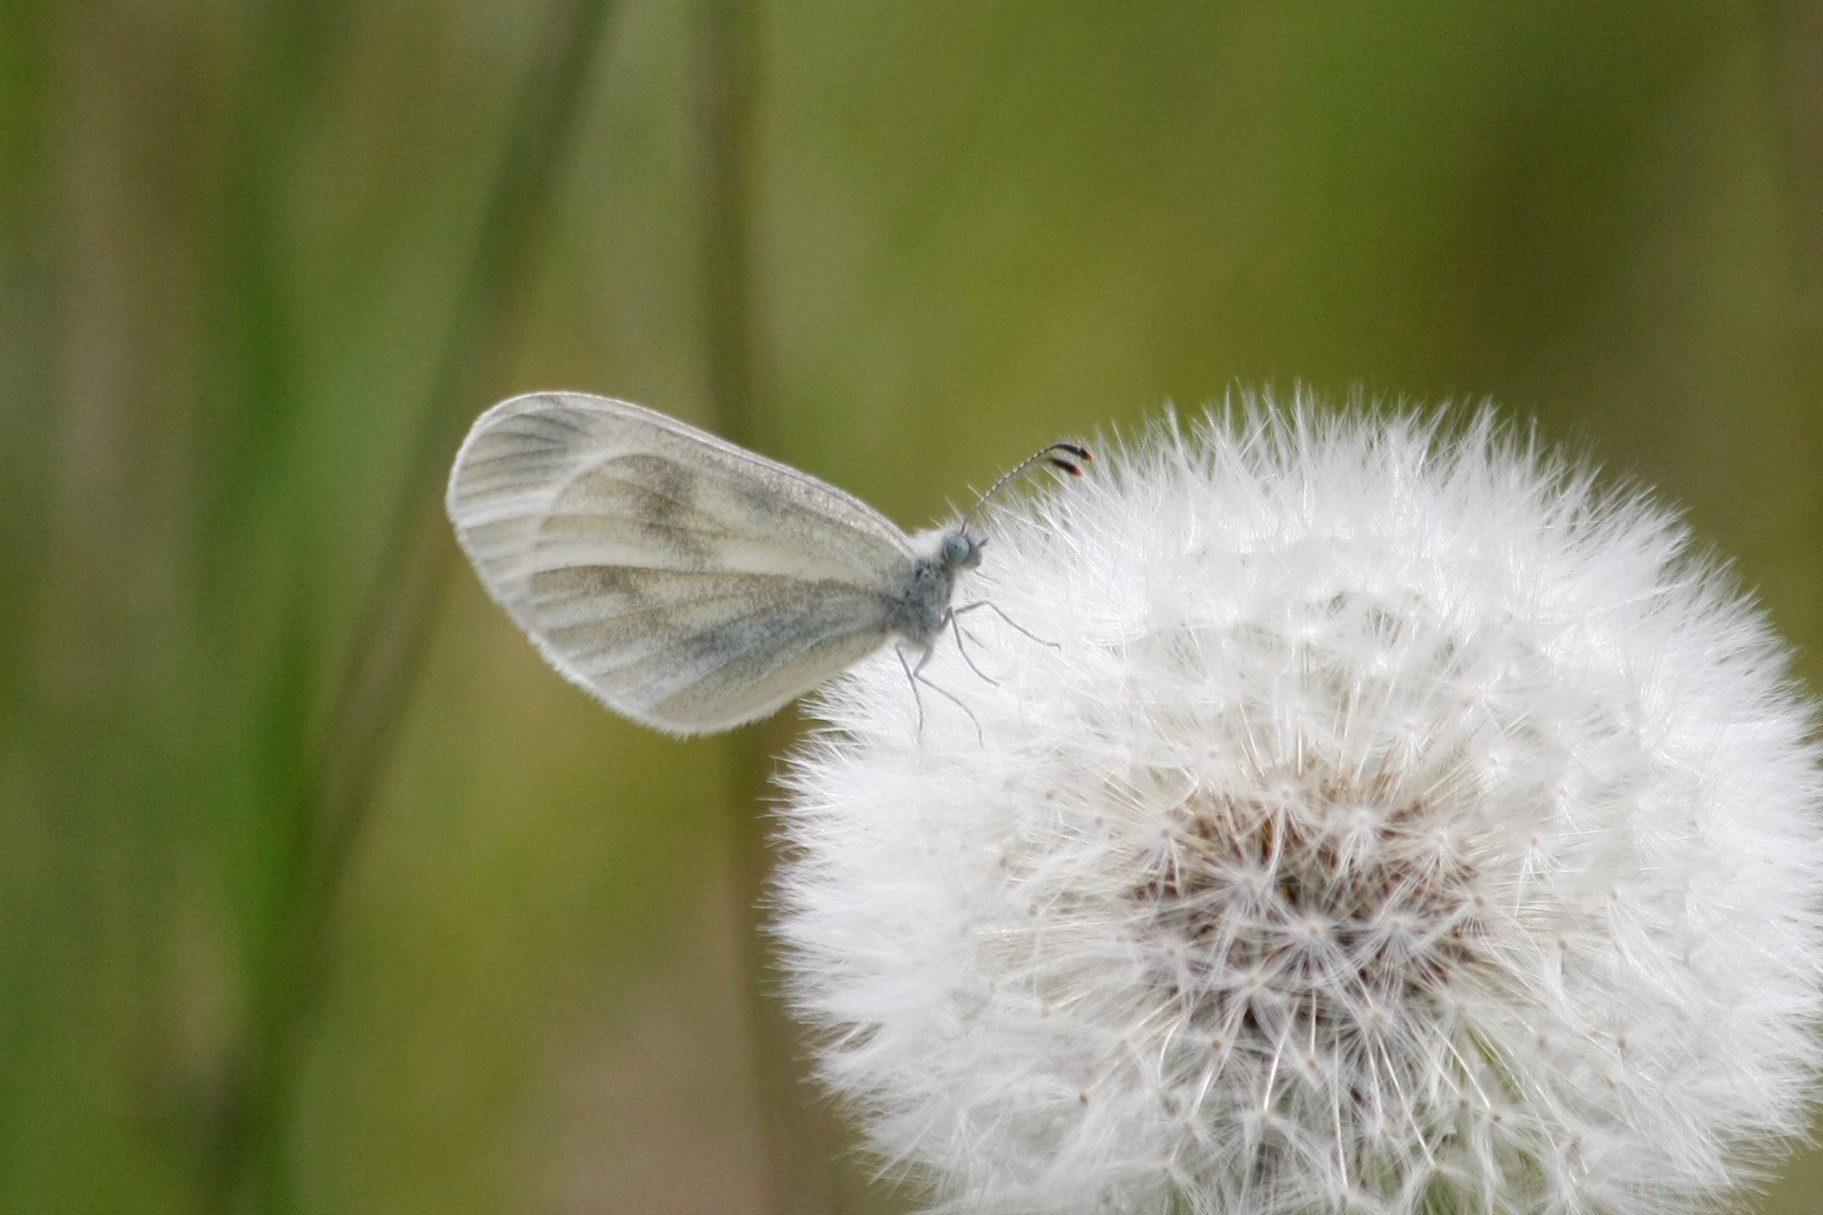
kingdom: Animalia
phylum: Arthropoda
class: Insecta
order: Lepidoptera
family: Pieridae
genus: Leptidea
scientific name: Leptidea sinapis
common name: Wood white
